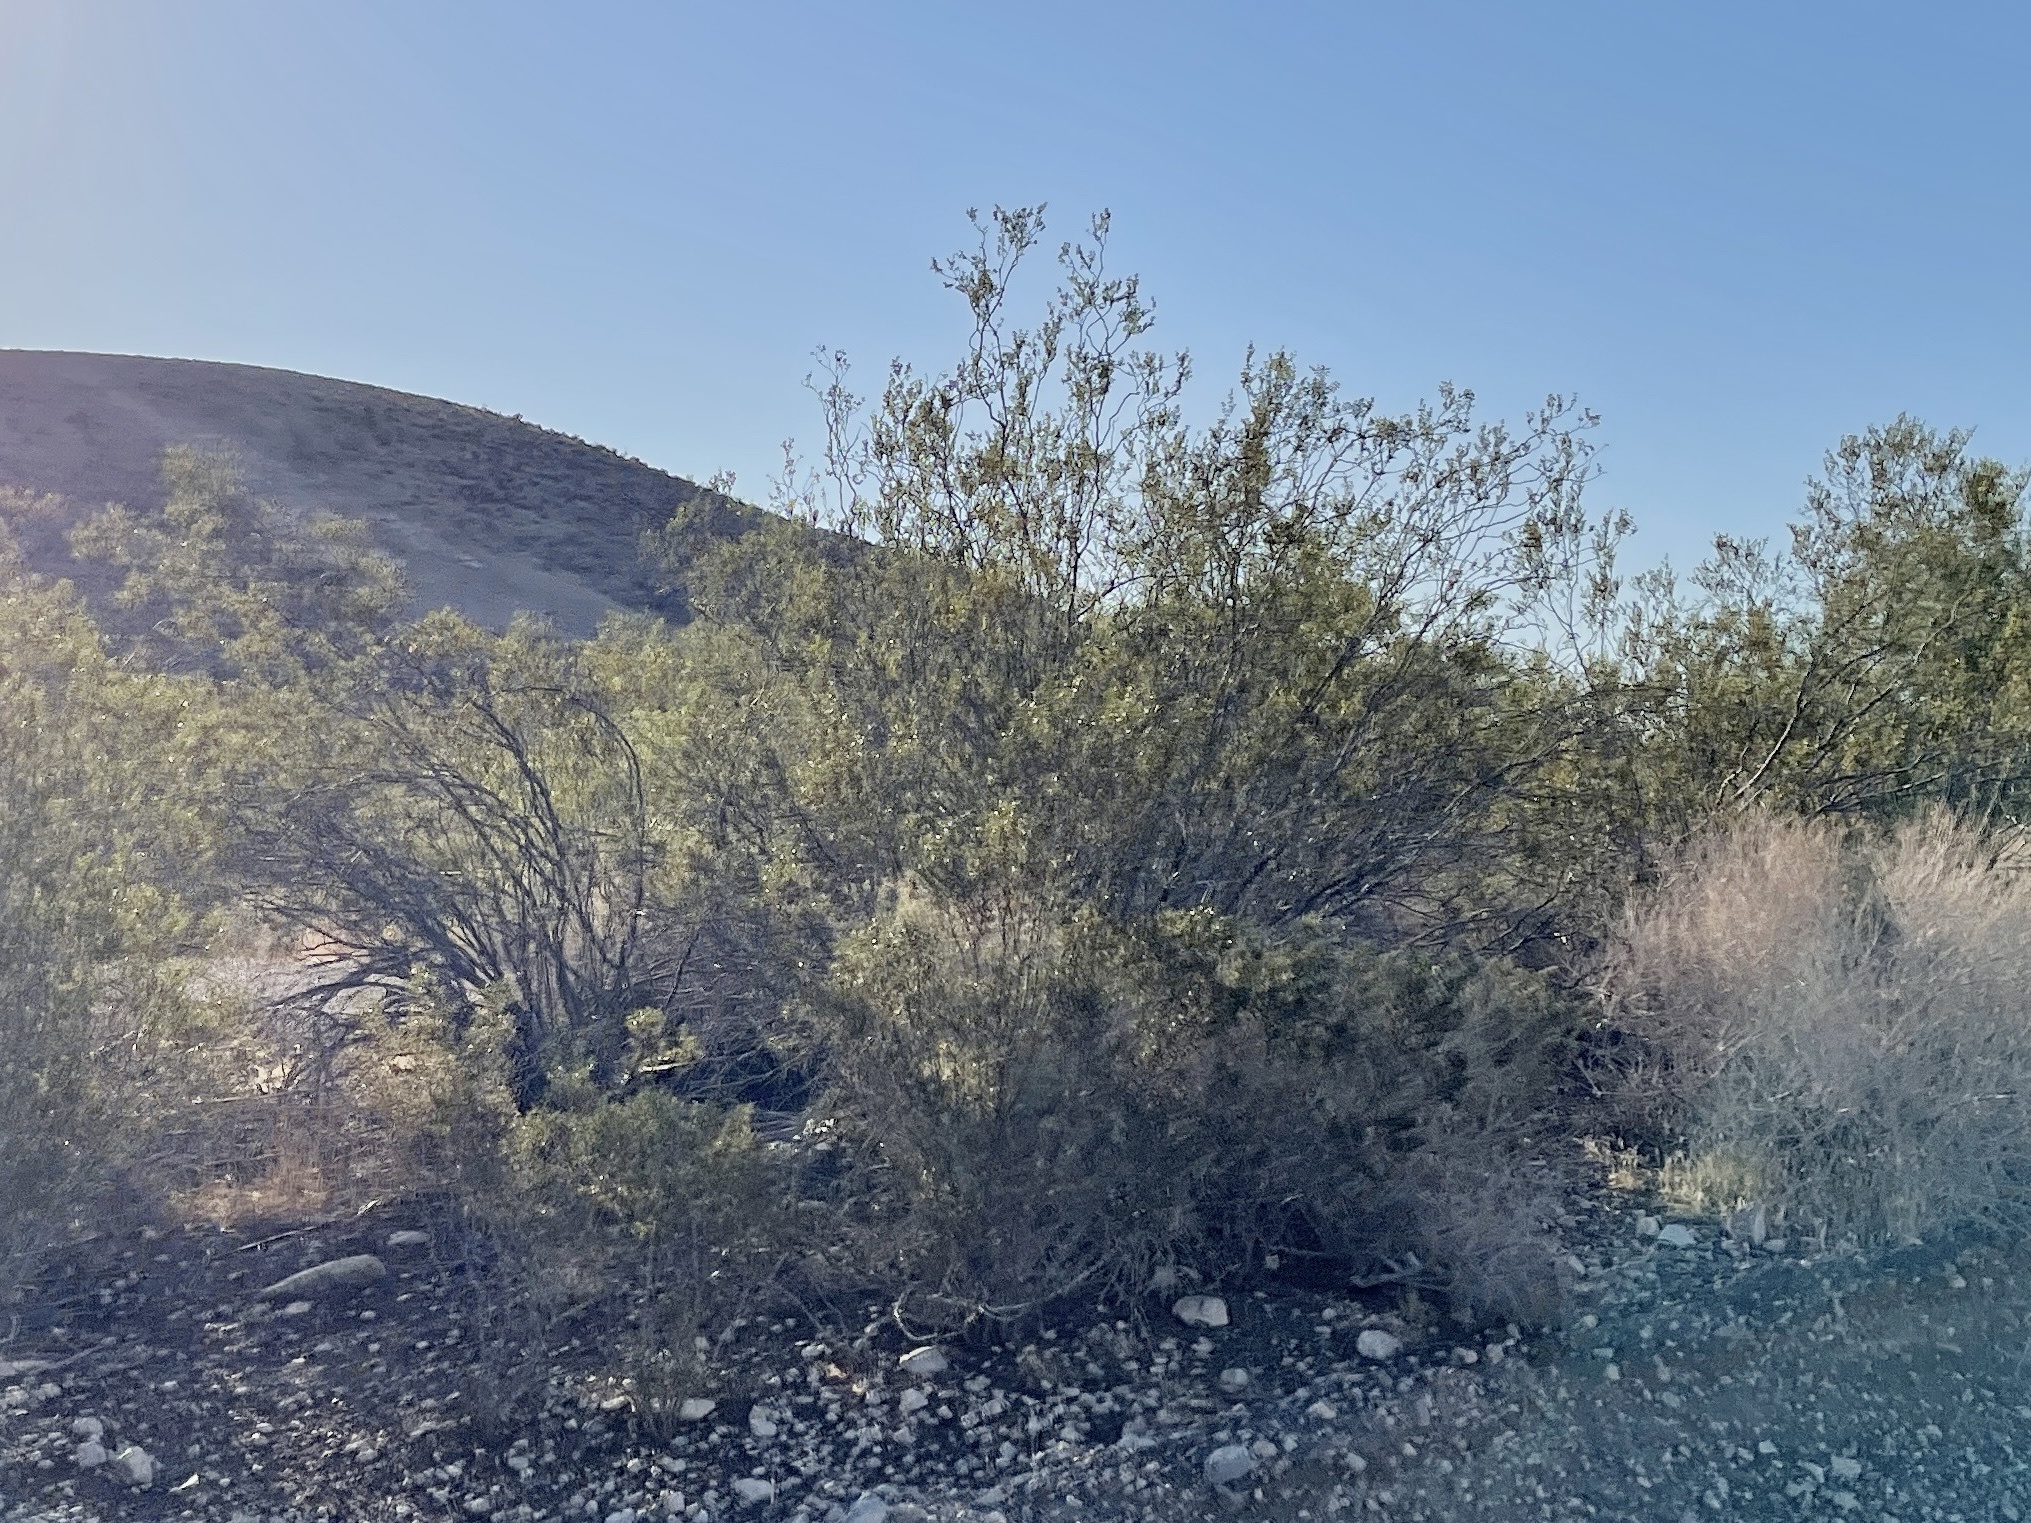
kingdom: Plantae
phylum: Tracheophyta
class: Magnoliopsida
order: Zygophyllales
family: Zygophyllaceae
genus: Larrea
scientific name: Larrea tridentata
